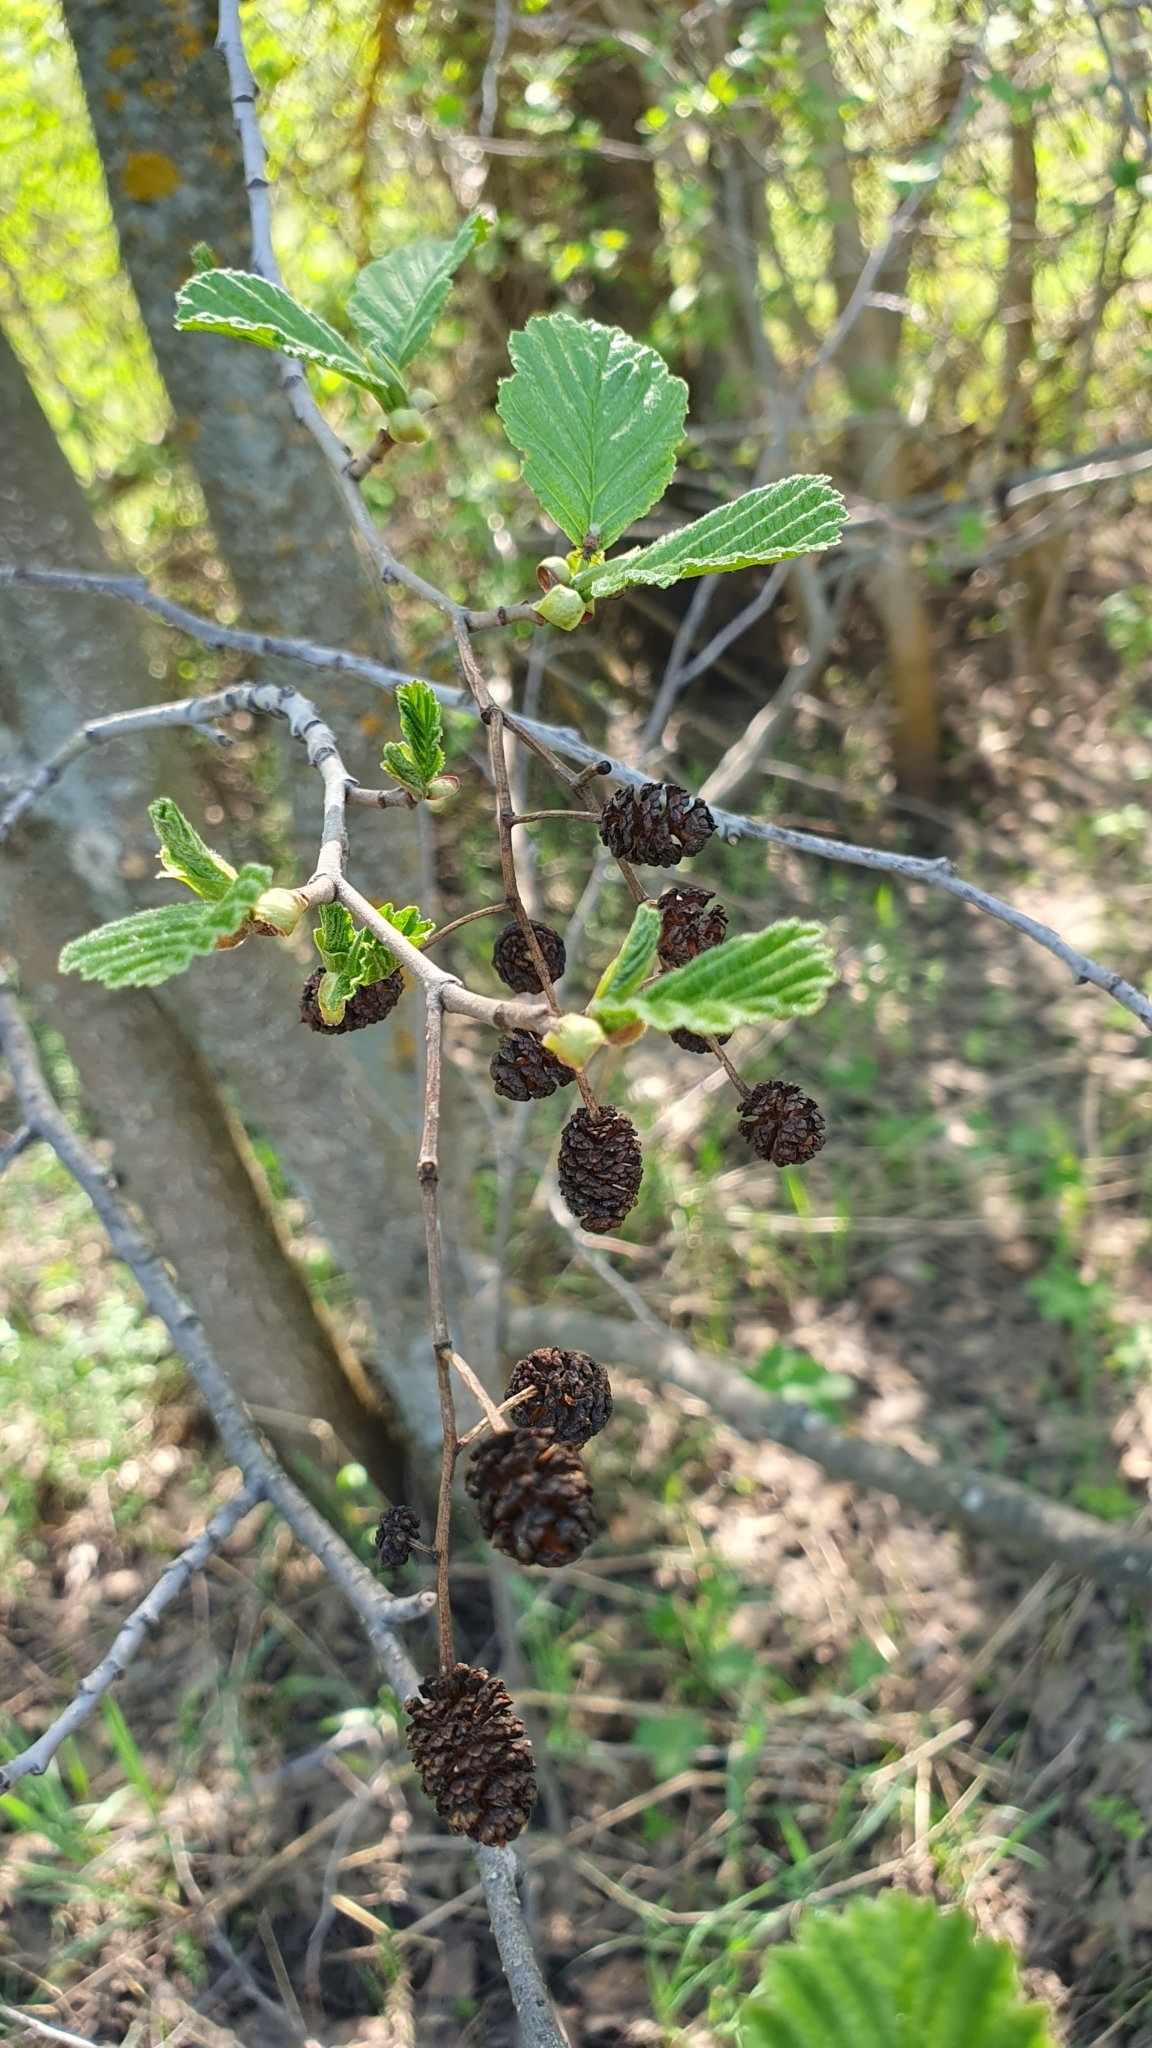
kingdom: Plantae
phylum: Tracheophyta
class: Magnoliopsida
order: Fagales
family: Betulaceae
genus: Alnus
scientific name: Alnus glutinosa
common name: Black alder
